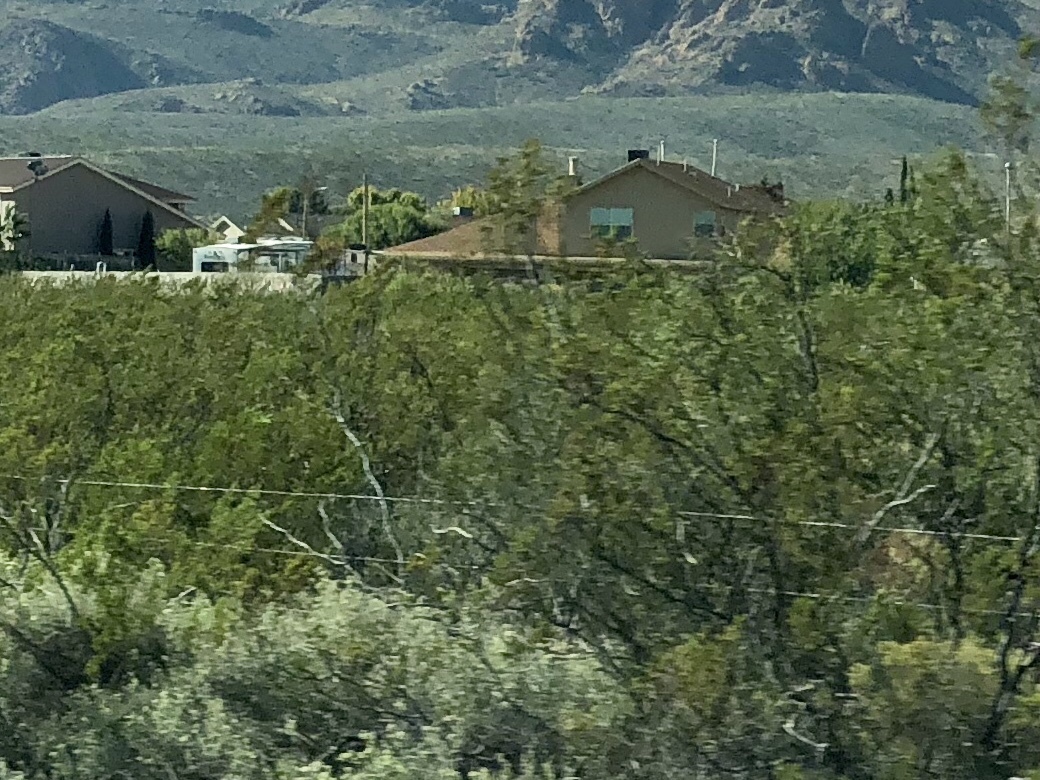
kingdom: Plantae
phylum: Tracheophyta
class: Magnoliopsida
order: Zygophyllales
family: Zygophyllaceae
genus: Larrea
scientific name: Larrea tridentata
